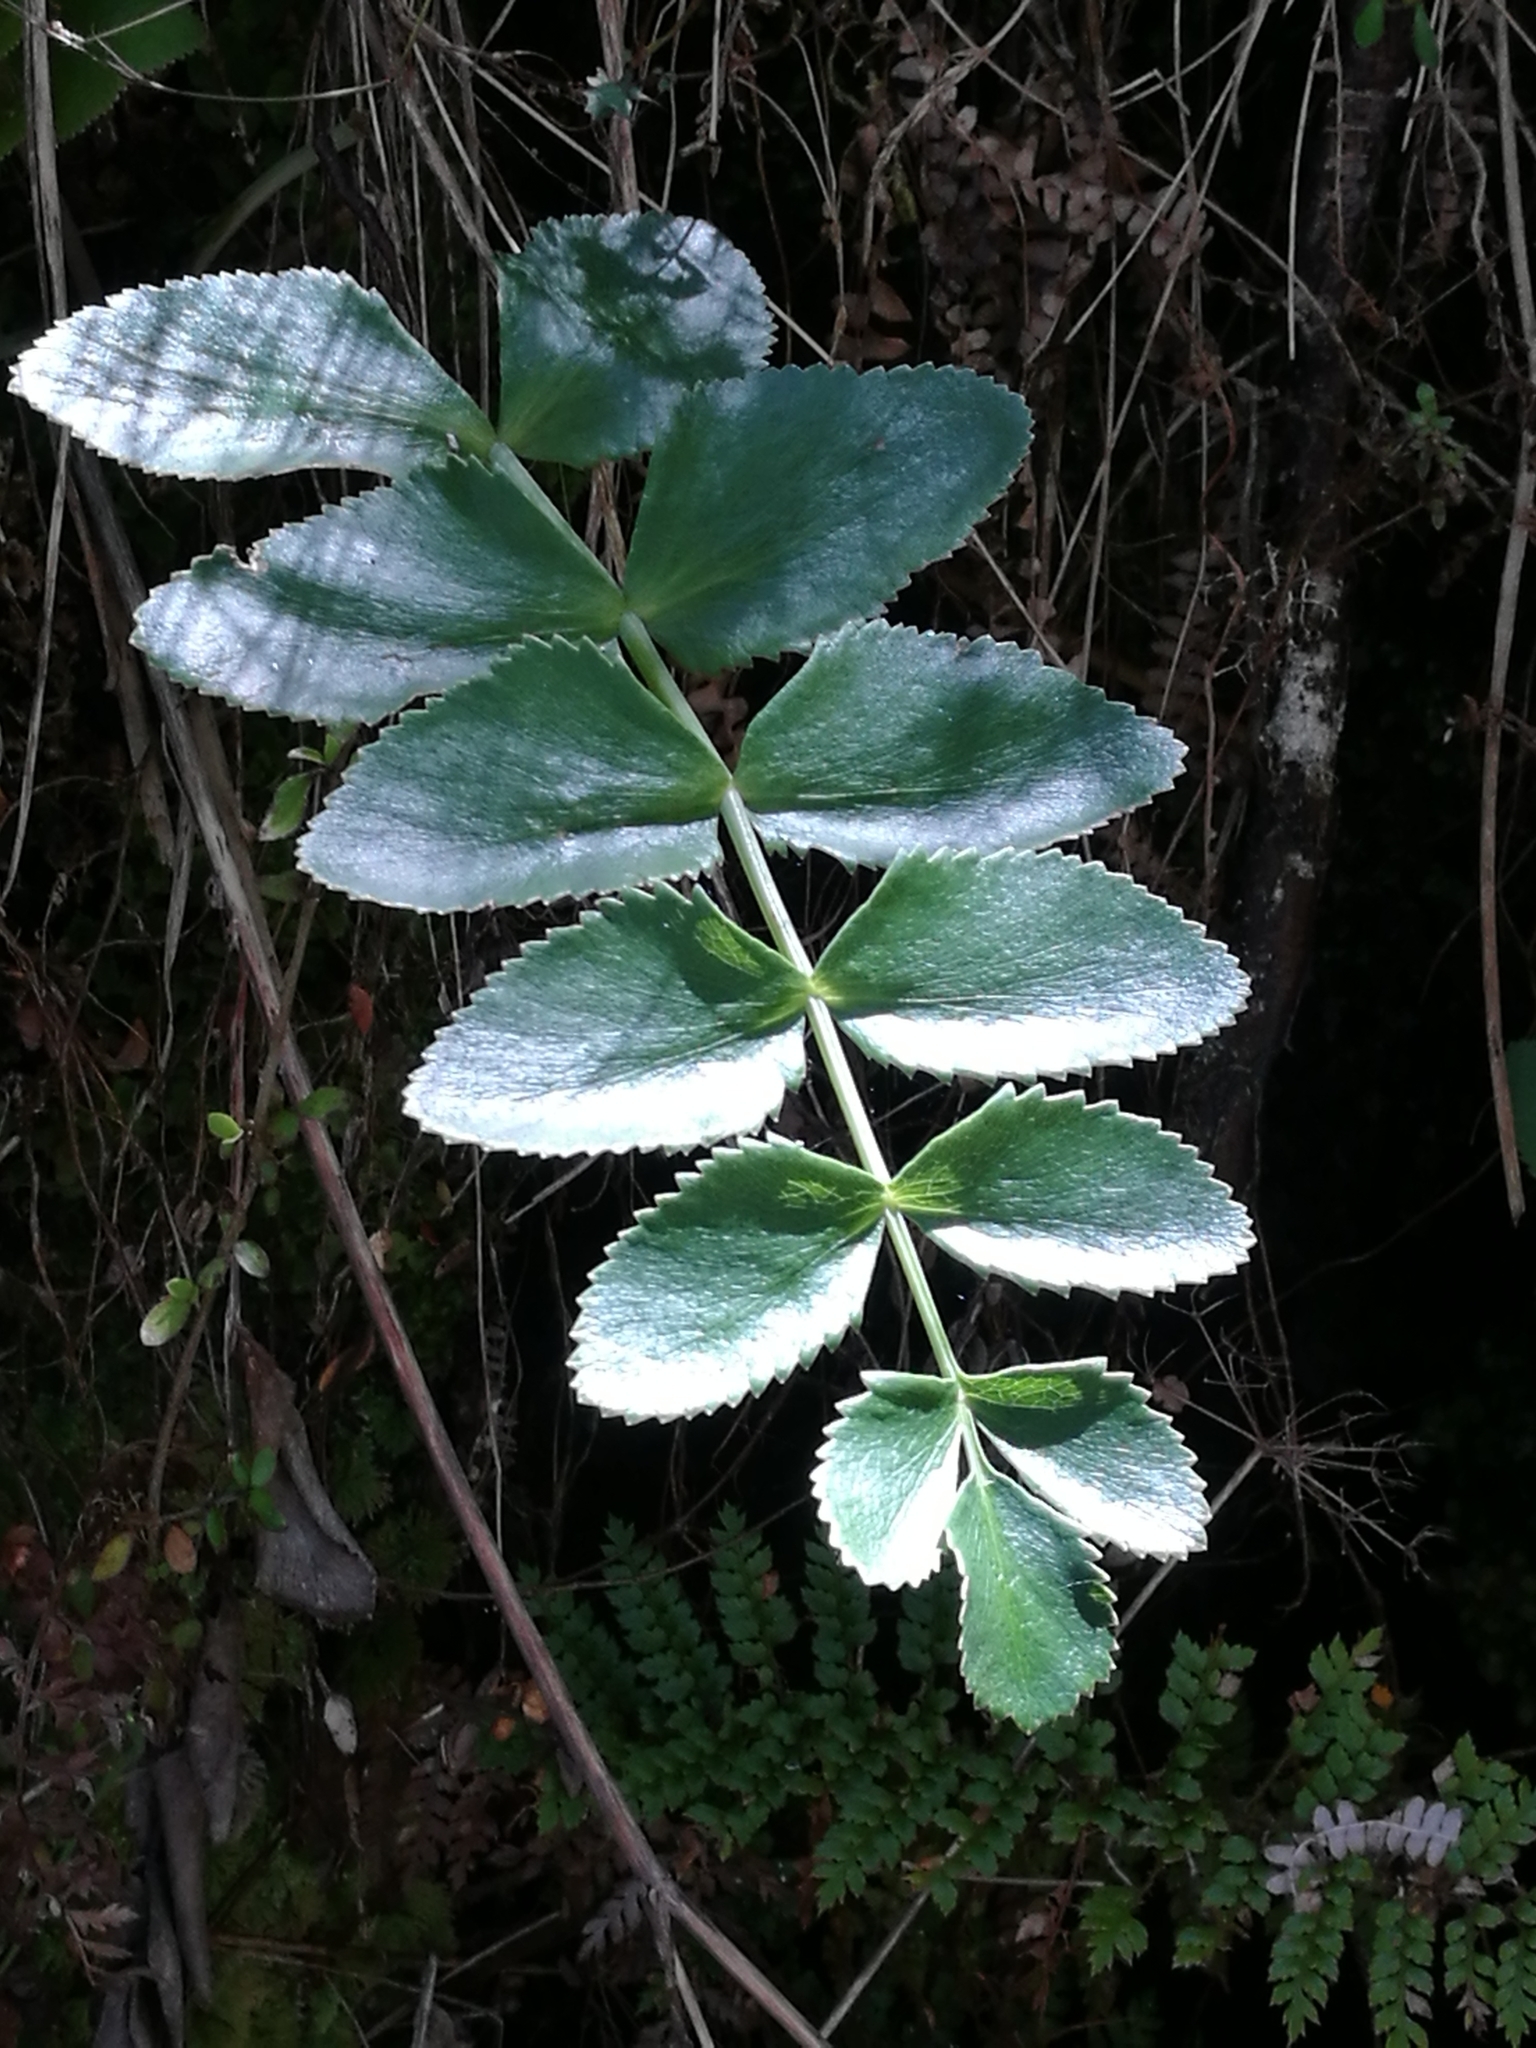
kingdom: Plantae
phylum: Tracheophyta
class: Magnoliopsida
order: Apiales
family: Apiaceae
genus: Gingidia
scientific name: Gingidia montana
